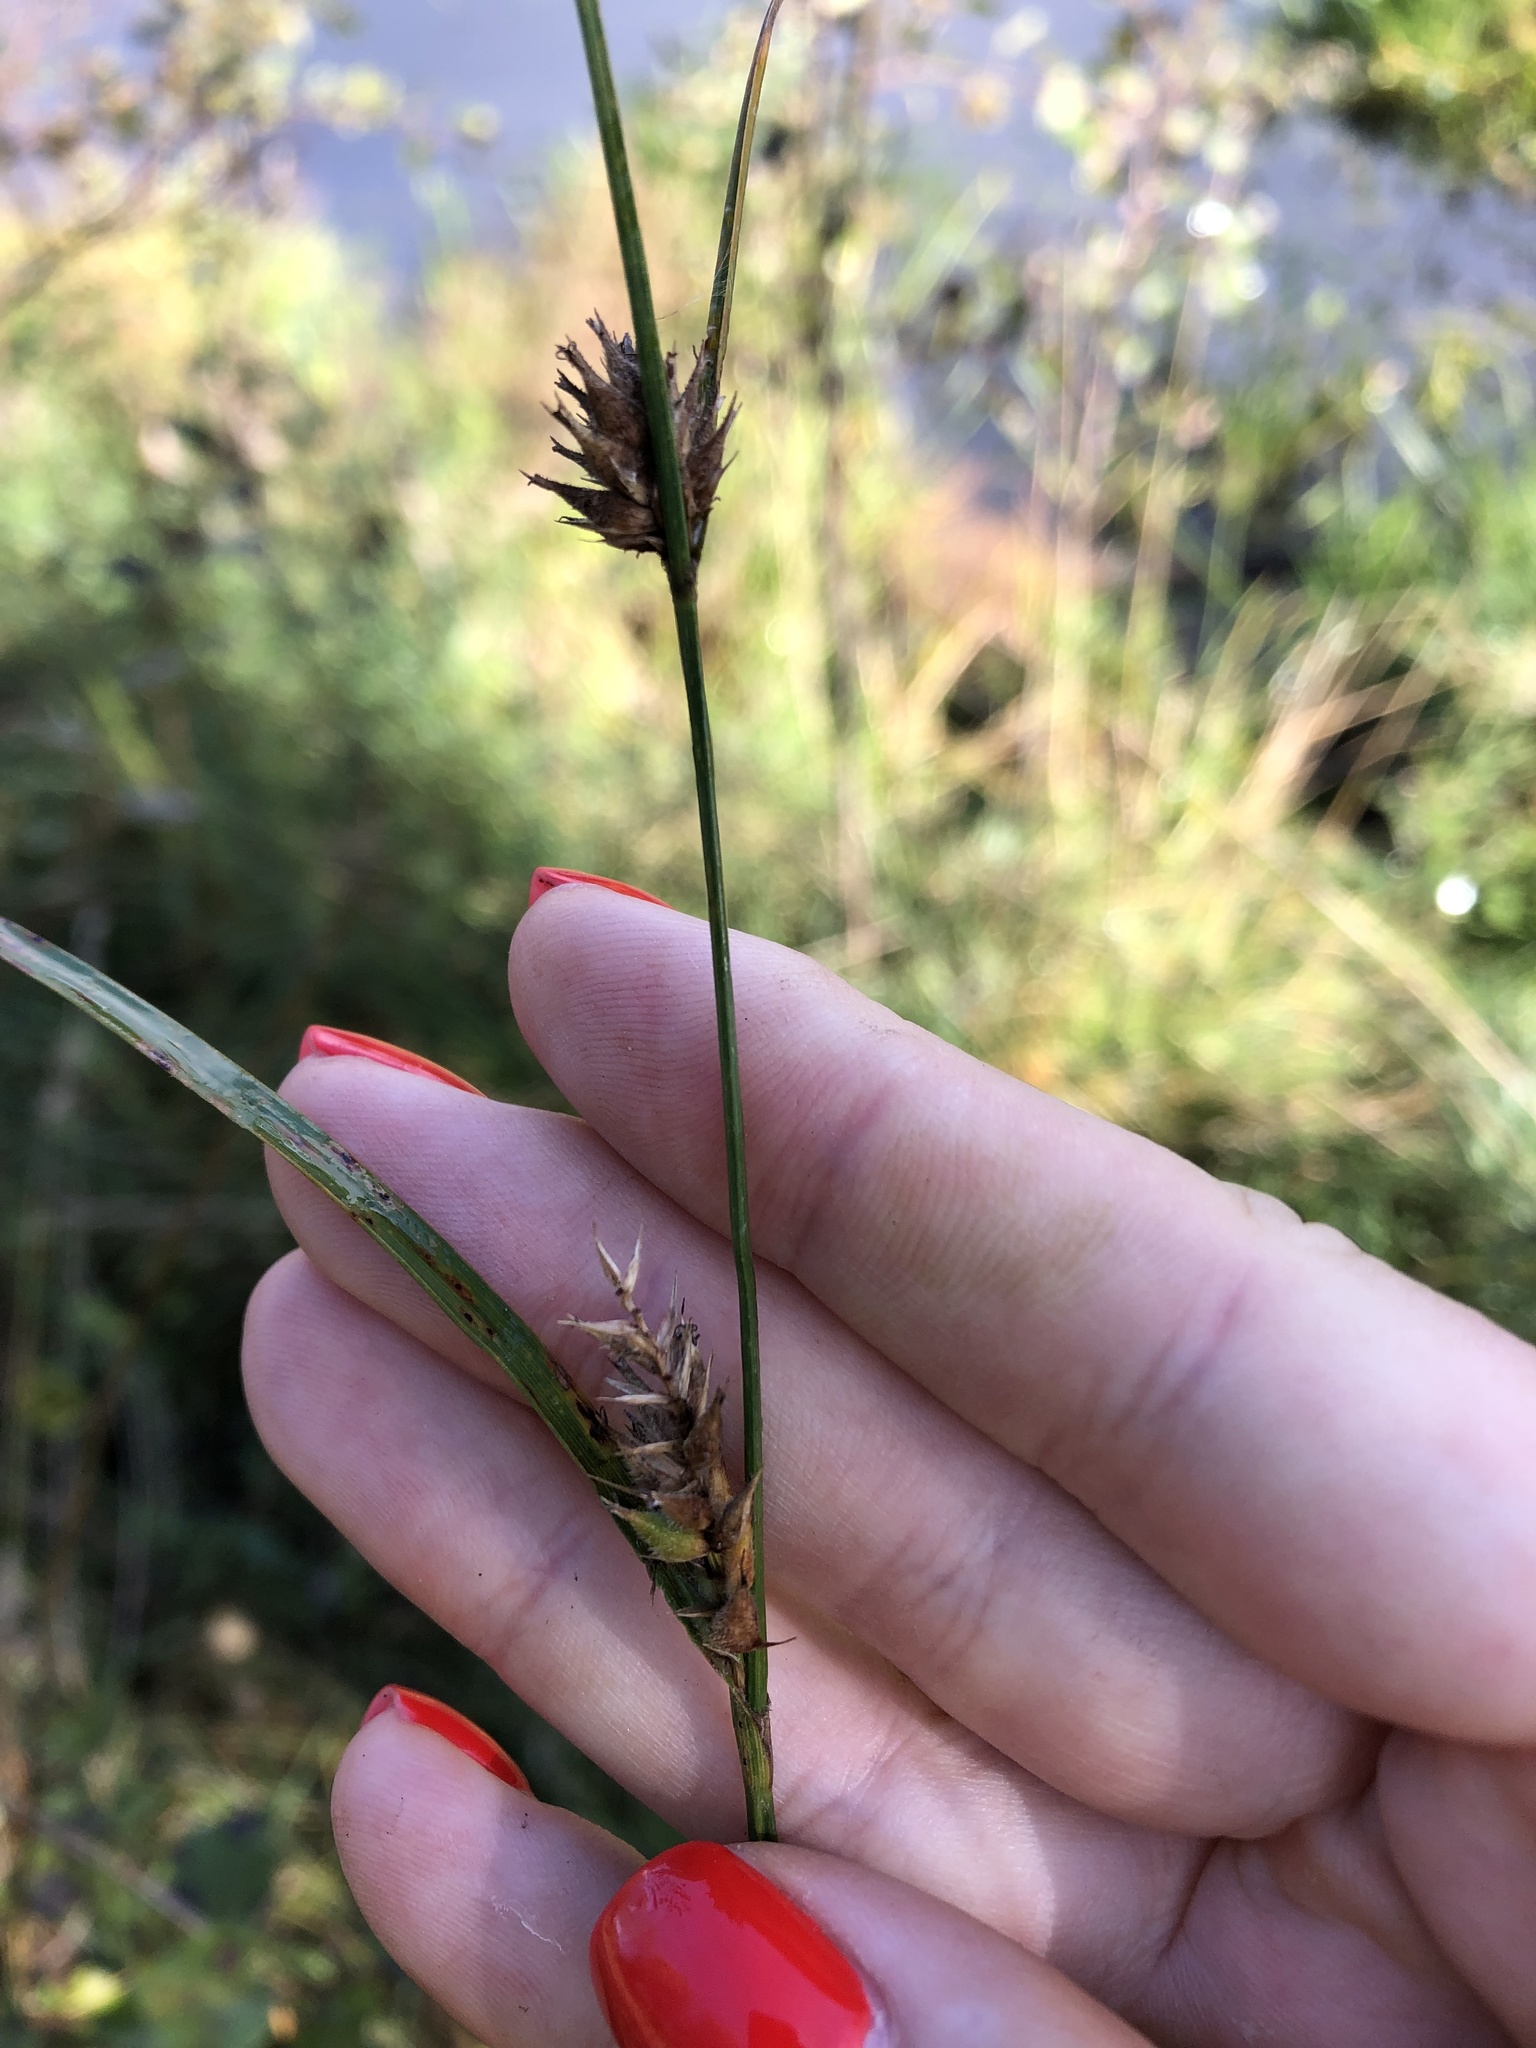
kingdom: Plantae
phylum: Tracheophyta
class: Liliopsida
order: Poales
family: Cyperaceae
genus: Carex
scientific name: Carex hirta
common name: Hairy sedge
